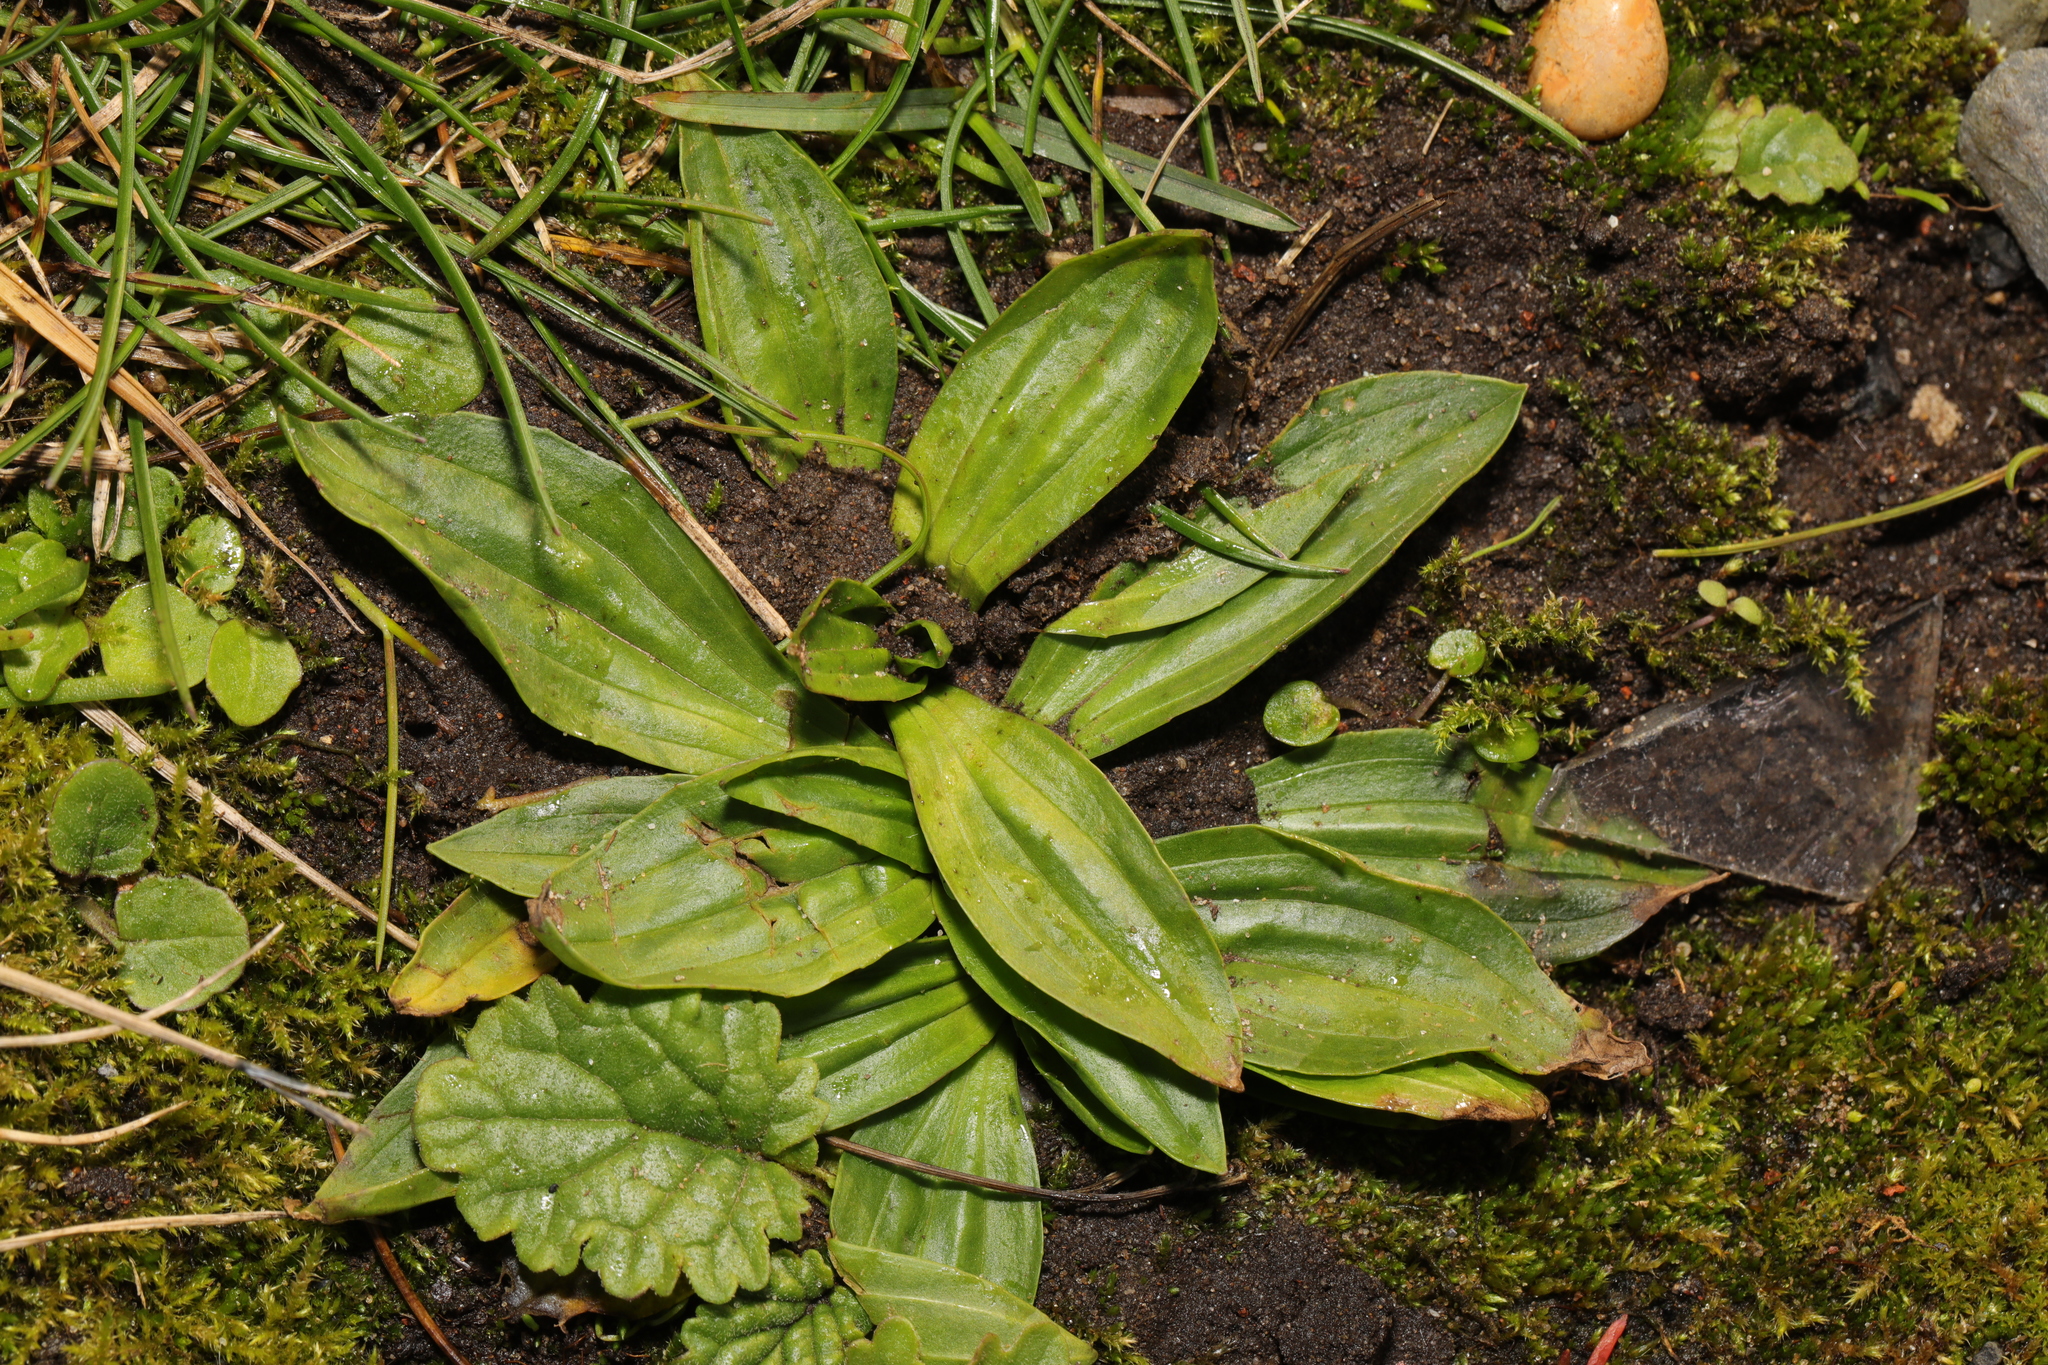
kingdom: Plantae
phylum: Tracheophyta
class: Magnoliopsida
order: Lamiales
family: Plantaginaceae
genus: Plantago
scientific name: Plantago media
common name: Hoary plantain
